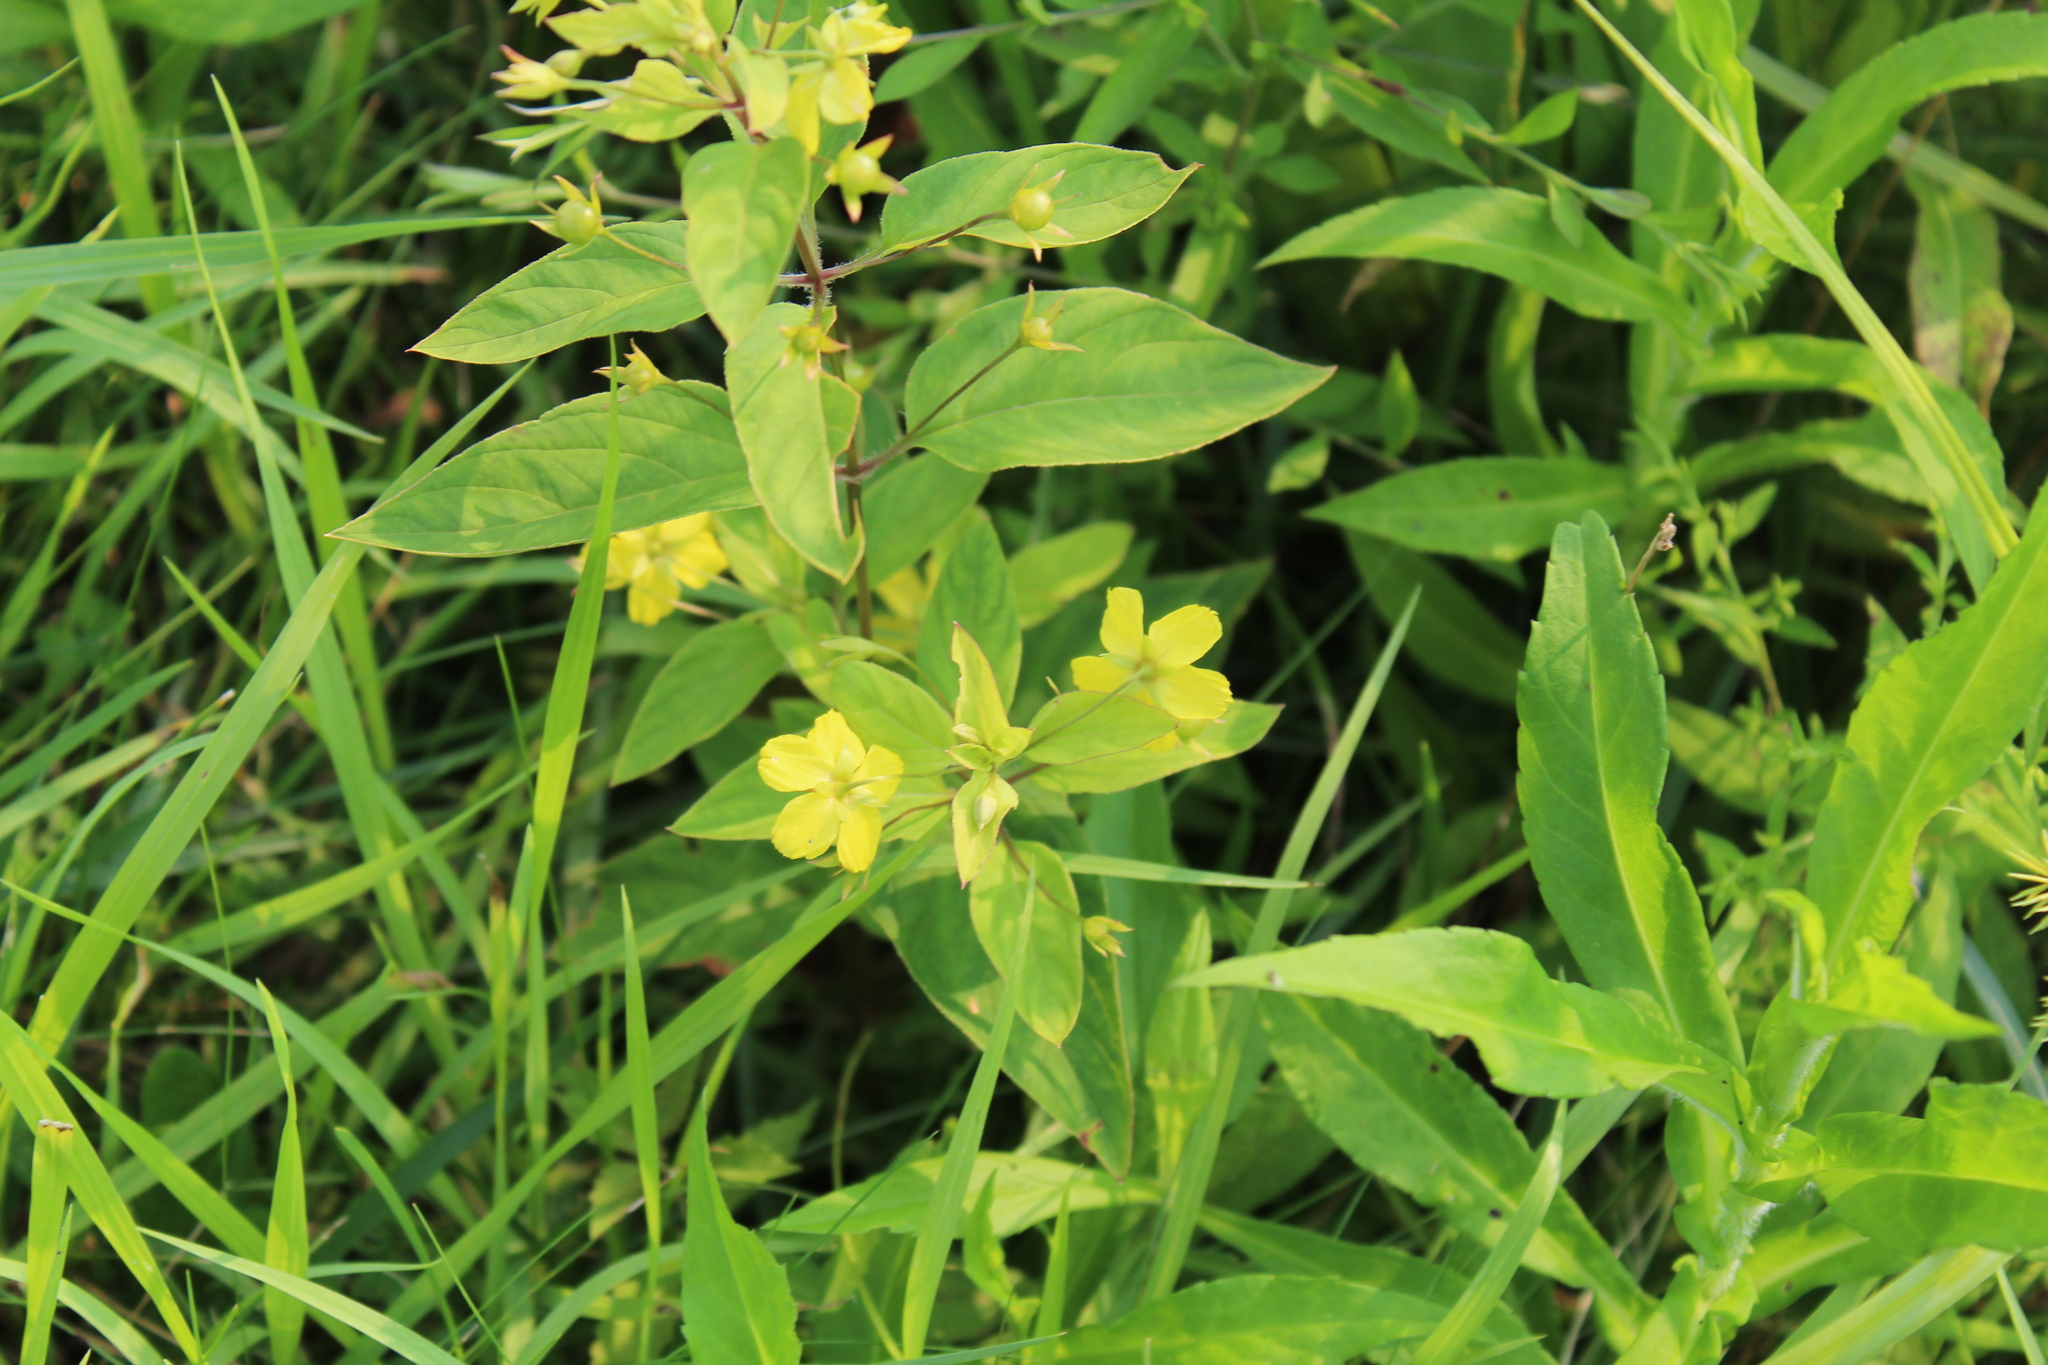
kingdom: Plantae
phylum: Tracheophyta
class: Magnoliopsida
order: Ericales
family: Primulaceae
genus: Lysimachia
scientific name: Lysimachia ciliata
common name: Fringed loosestrife
